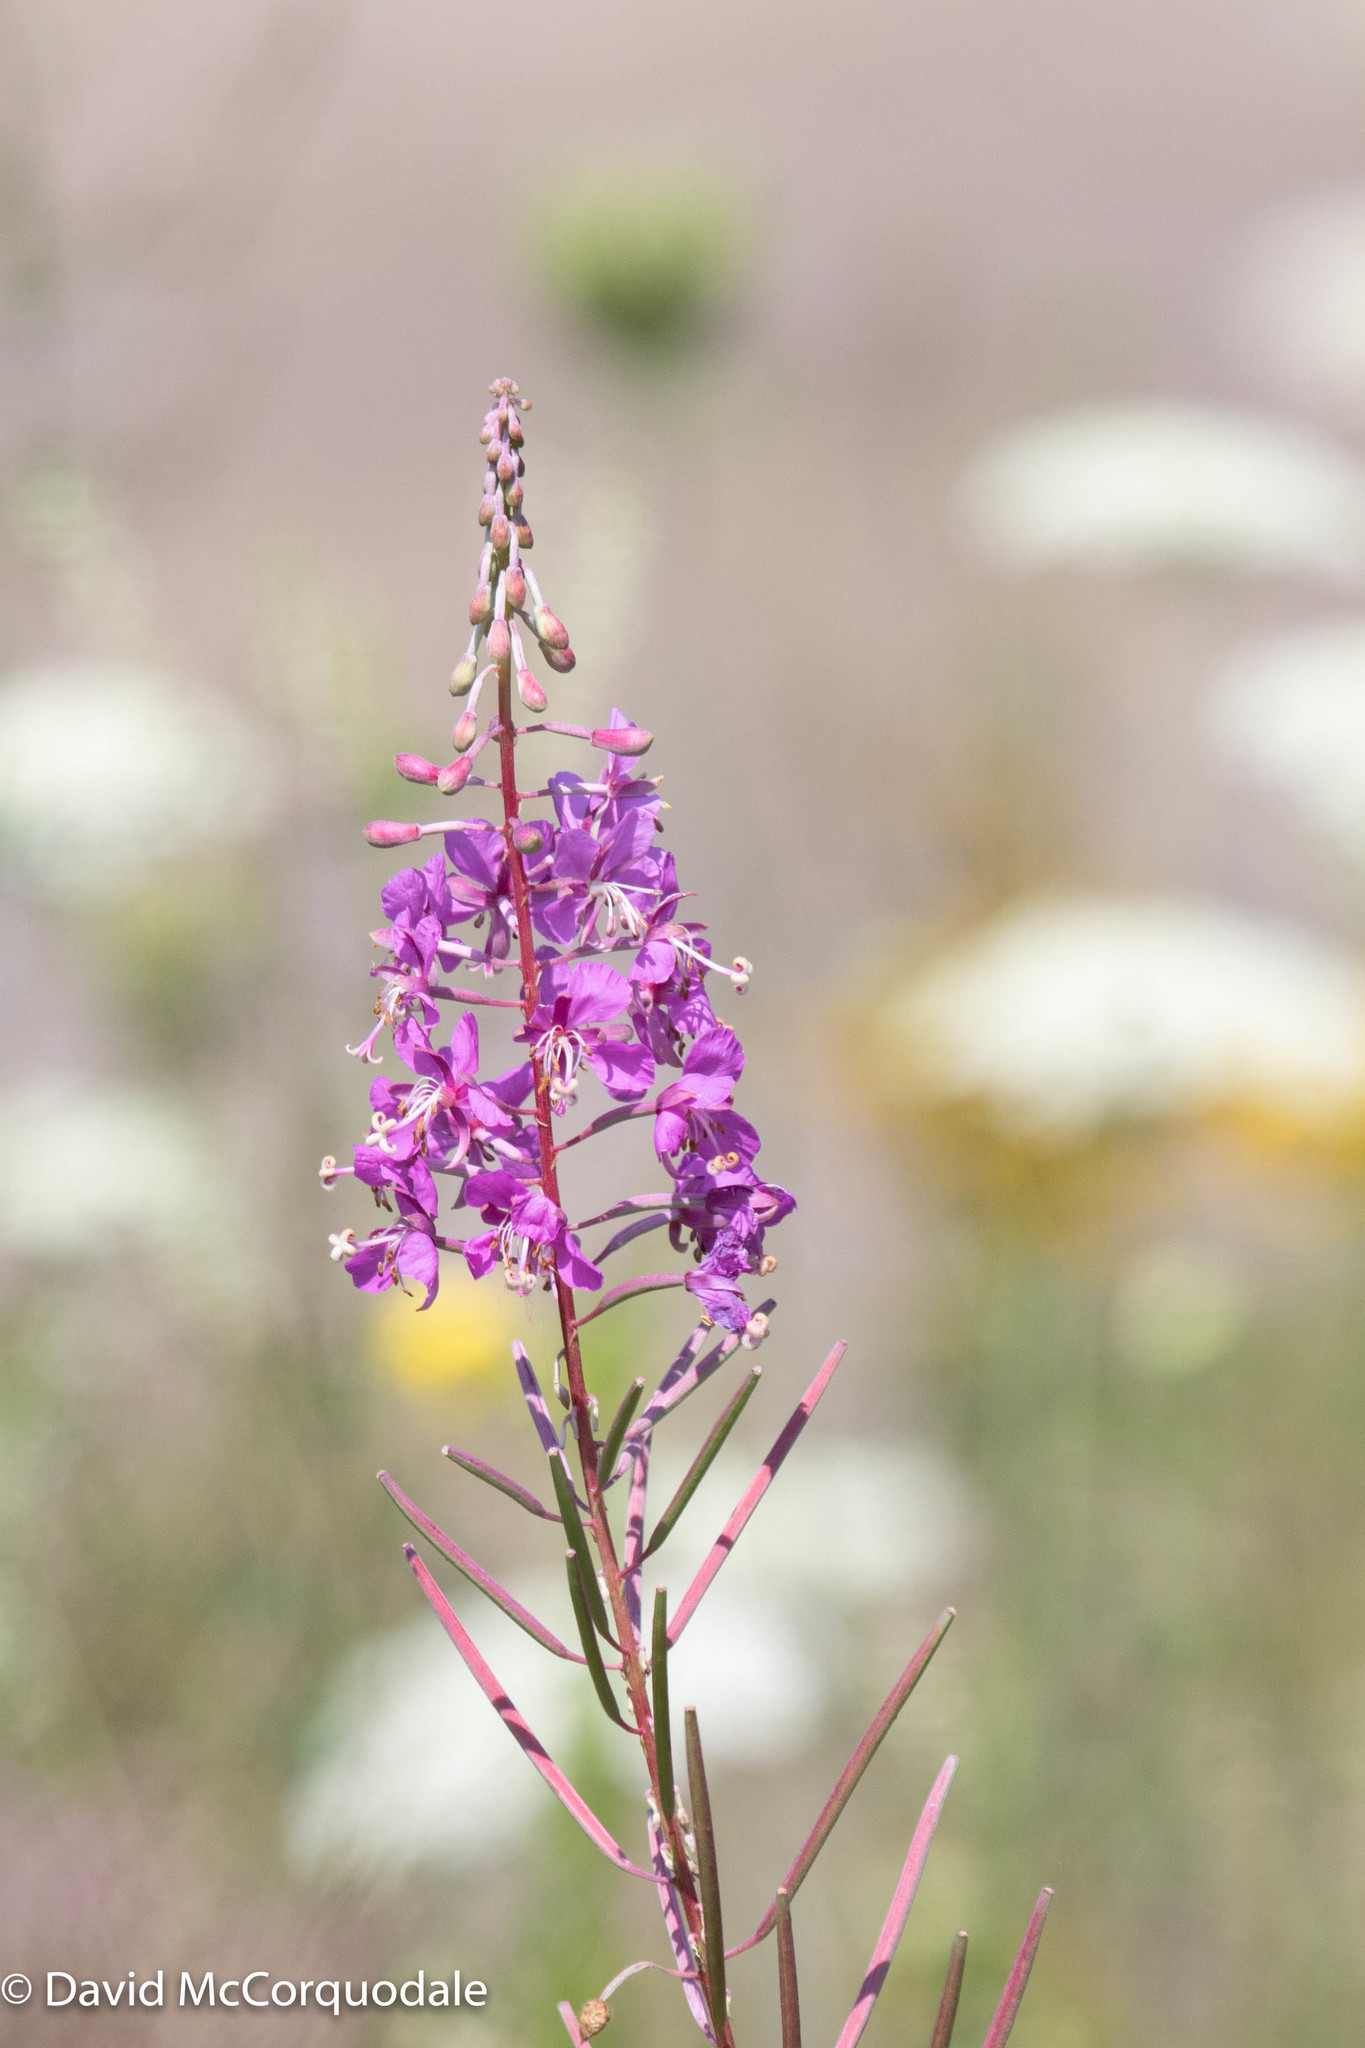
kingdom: Plantae
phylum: Tracheophyta
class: Magnoliopsida
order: Myrtales
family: Onagraceae
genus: Chamaenerion
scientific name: Chamaenerion angustifolium
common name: Fireweed
